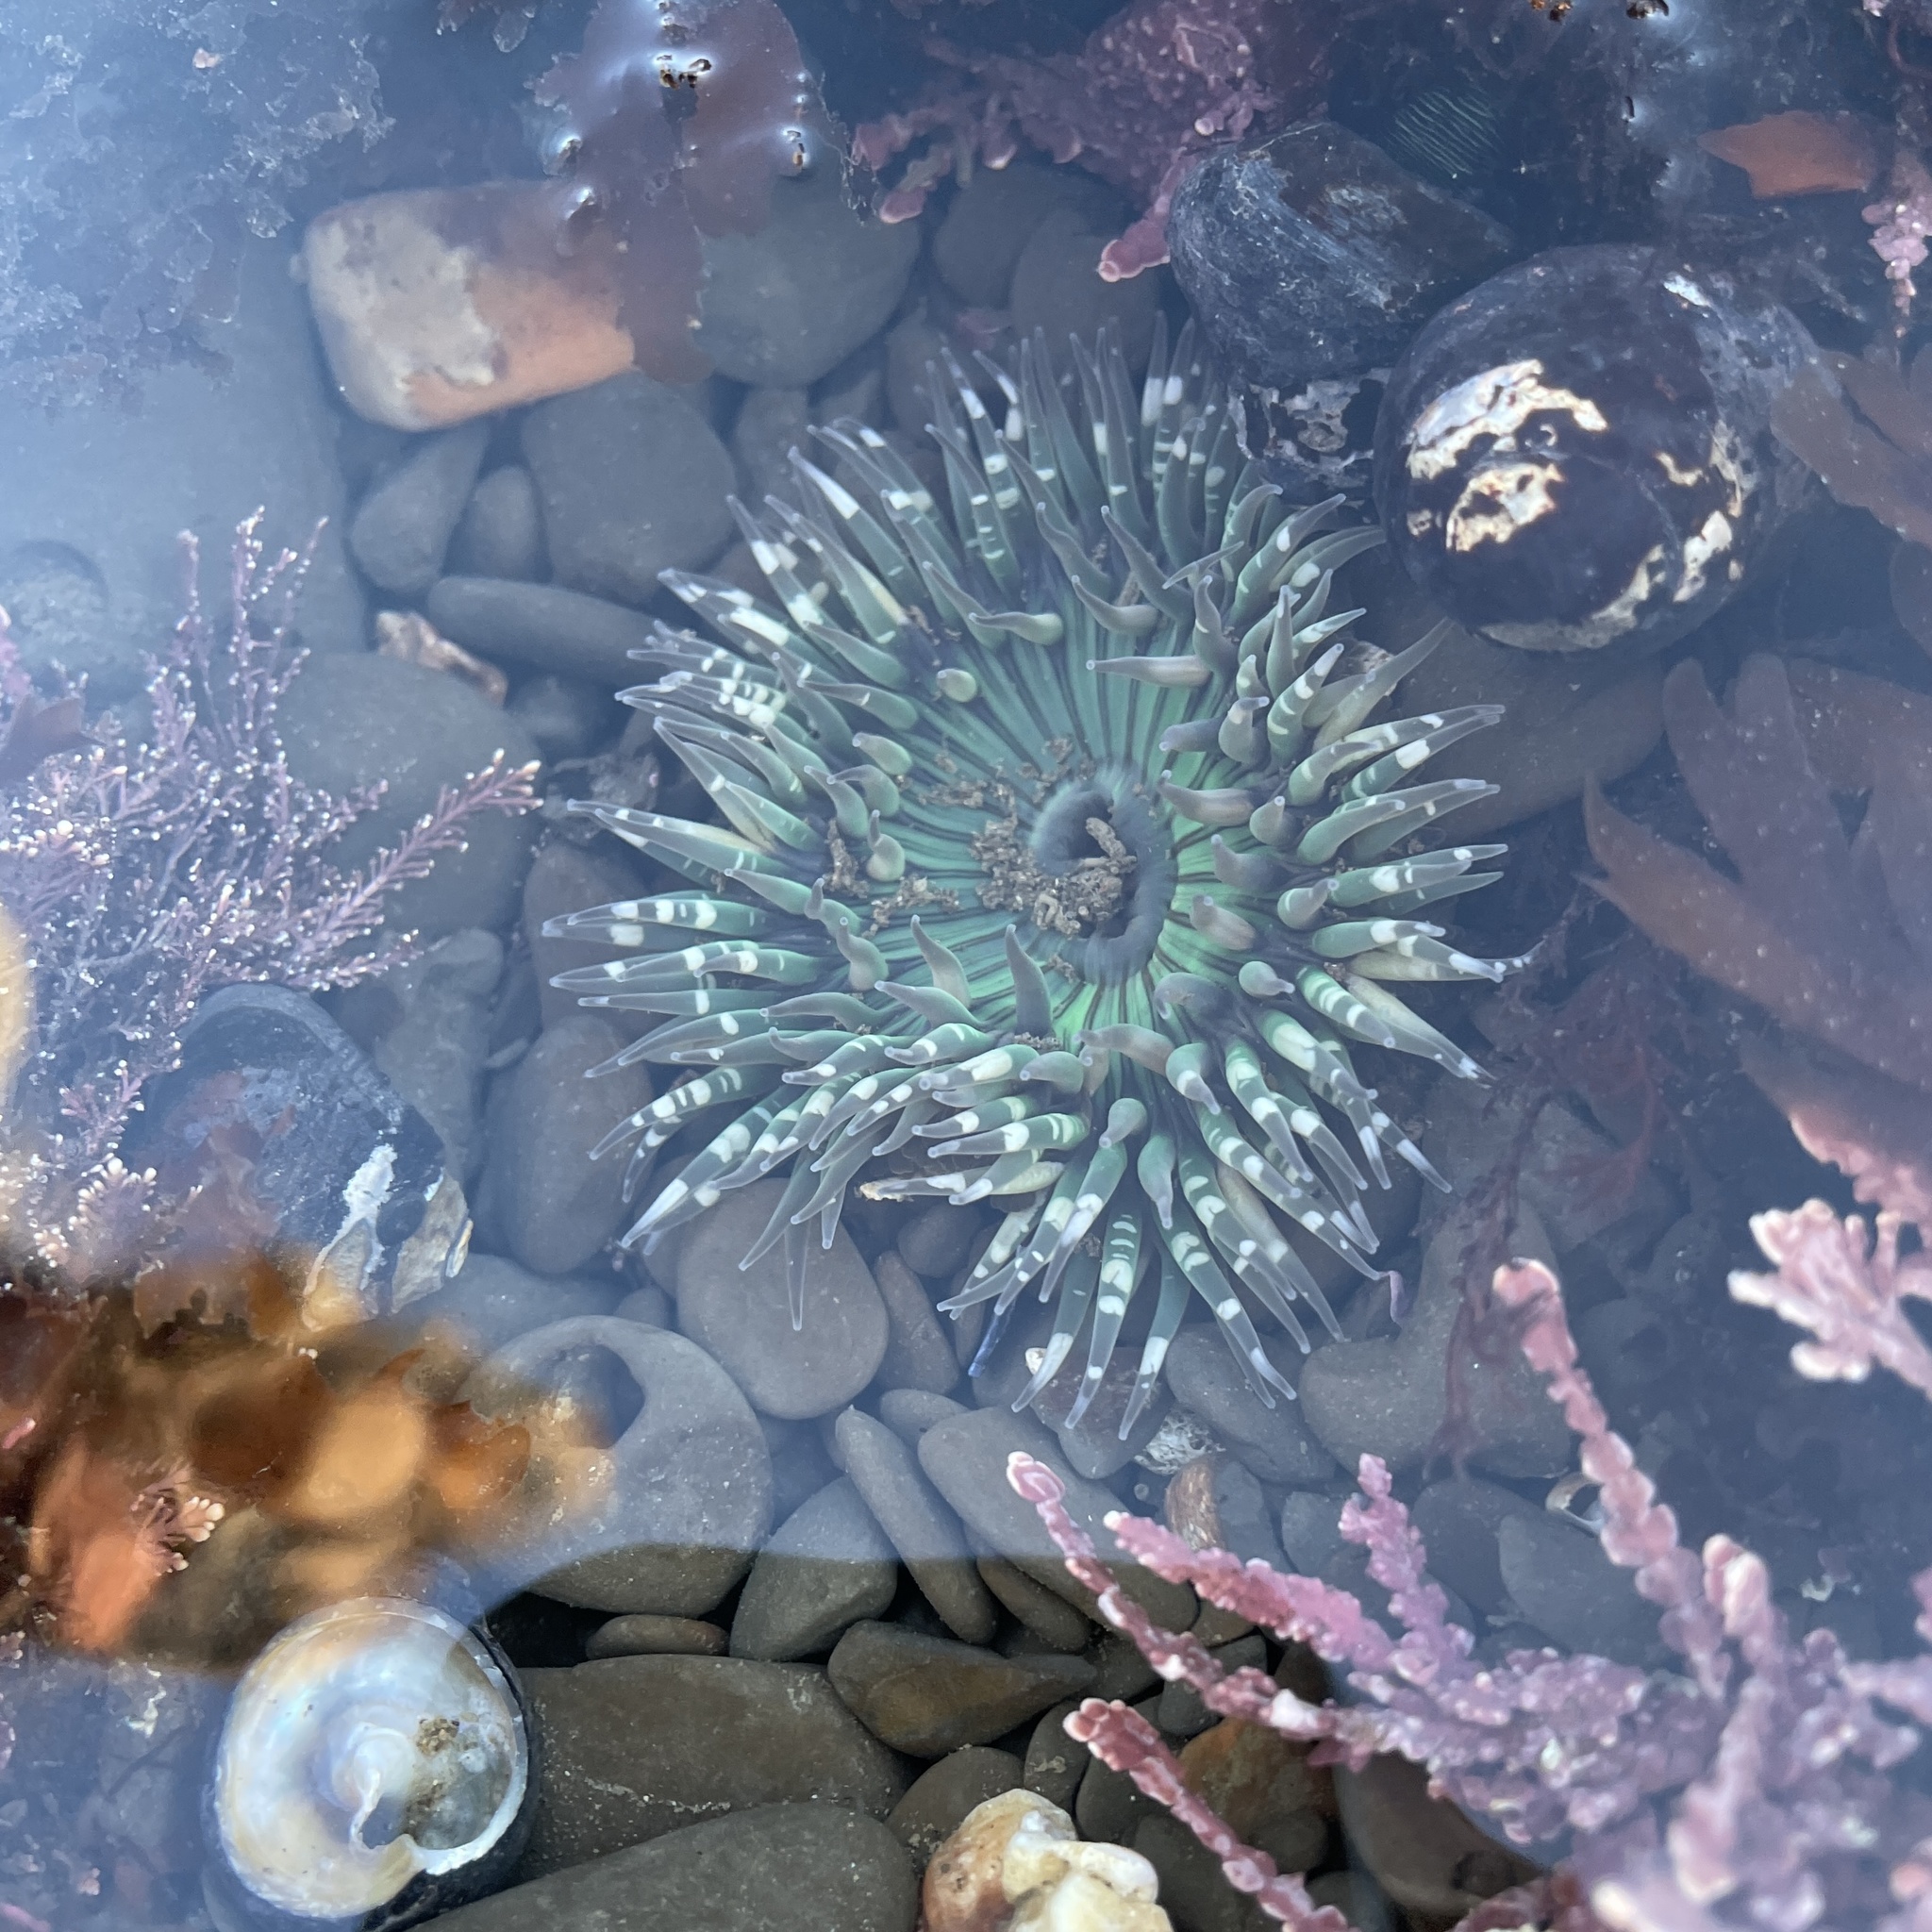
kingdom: Animalia
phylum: Cnidaria
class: Anthozoa
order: Actiniaria
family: Actiniidae
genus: Anthopleura
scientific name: Anthopleura sola
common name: Sun anemone
